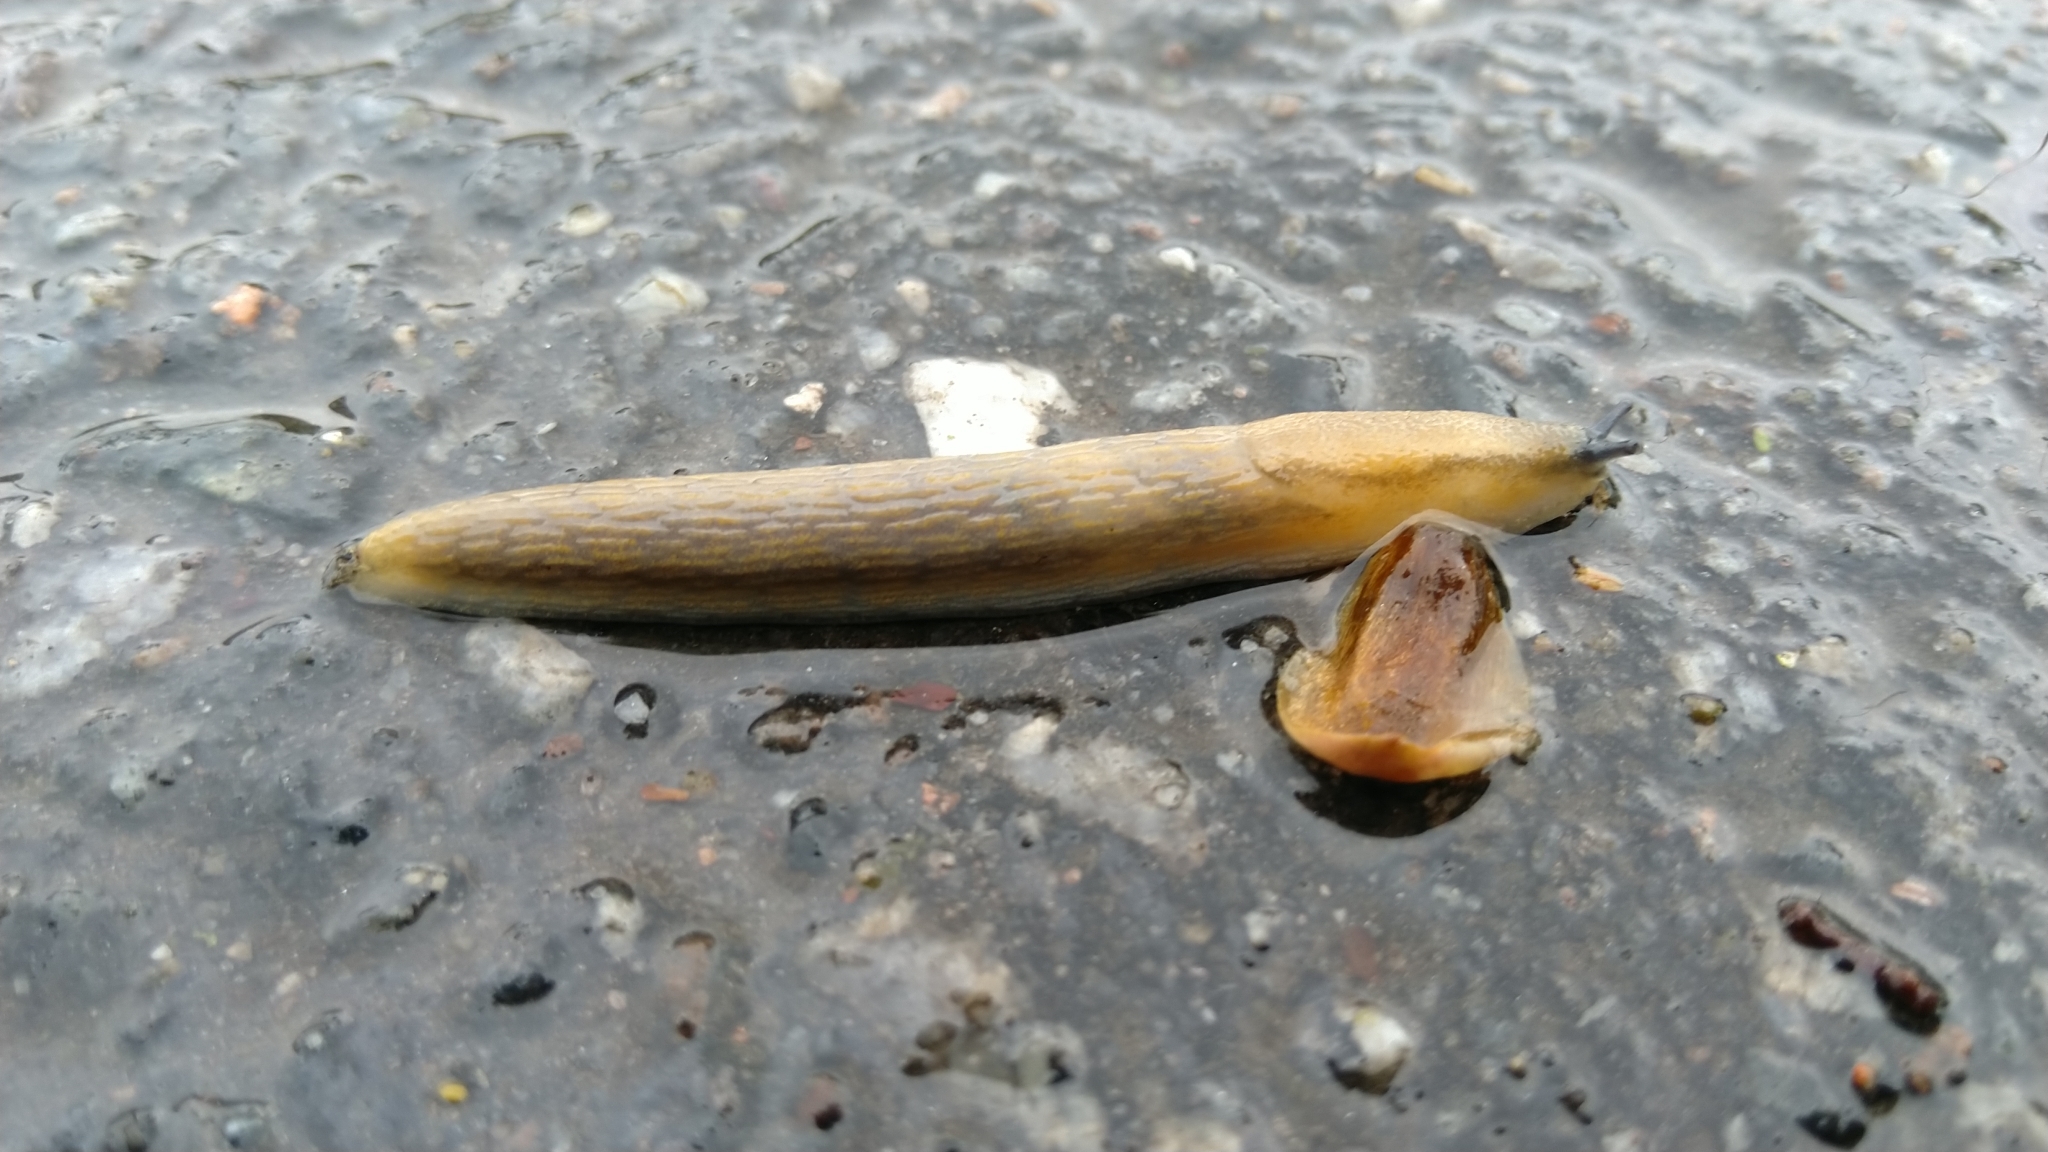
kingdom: Animalia
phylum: Mollusca
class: Gastropoda
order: Stylommatophora
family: Arionidae
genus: Arion
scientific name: Arion fuscus
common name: Northern dusky slug
